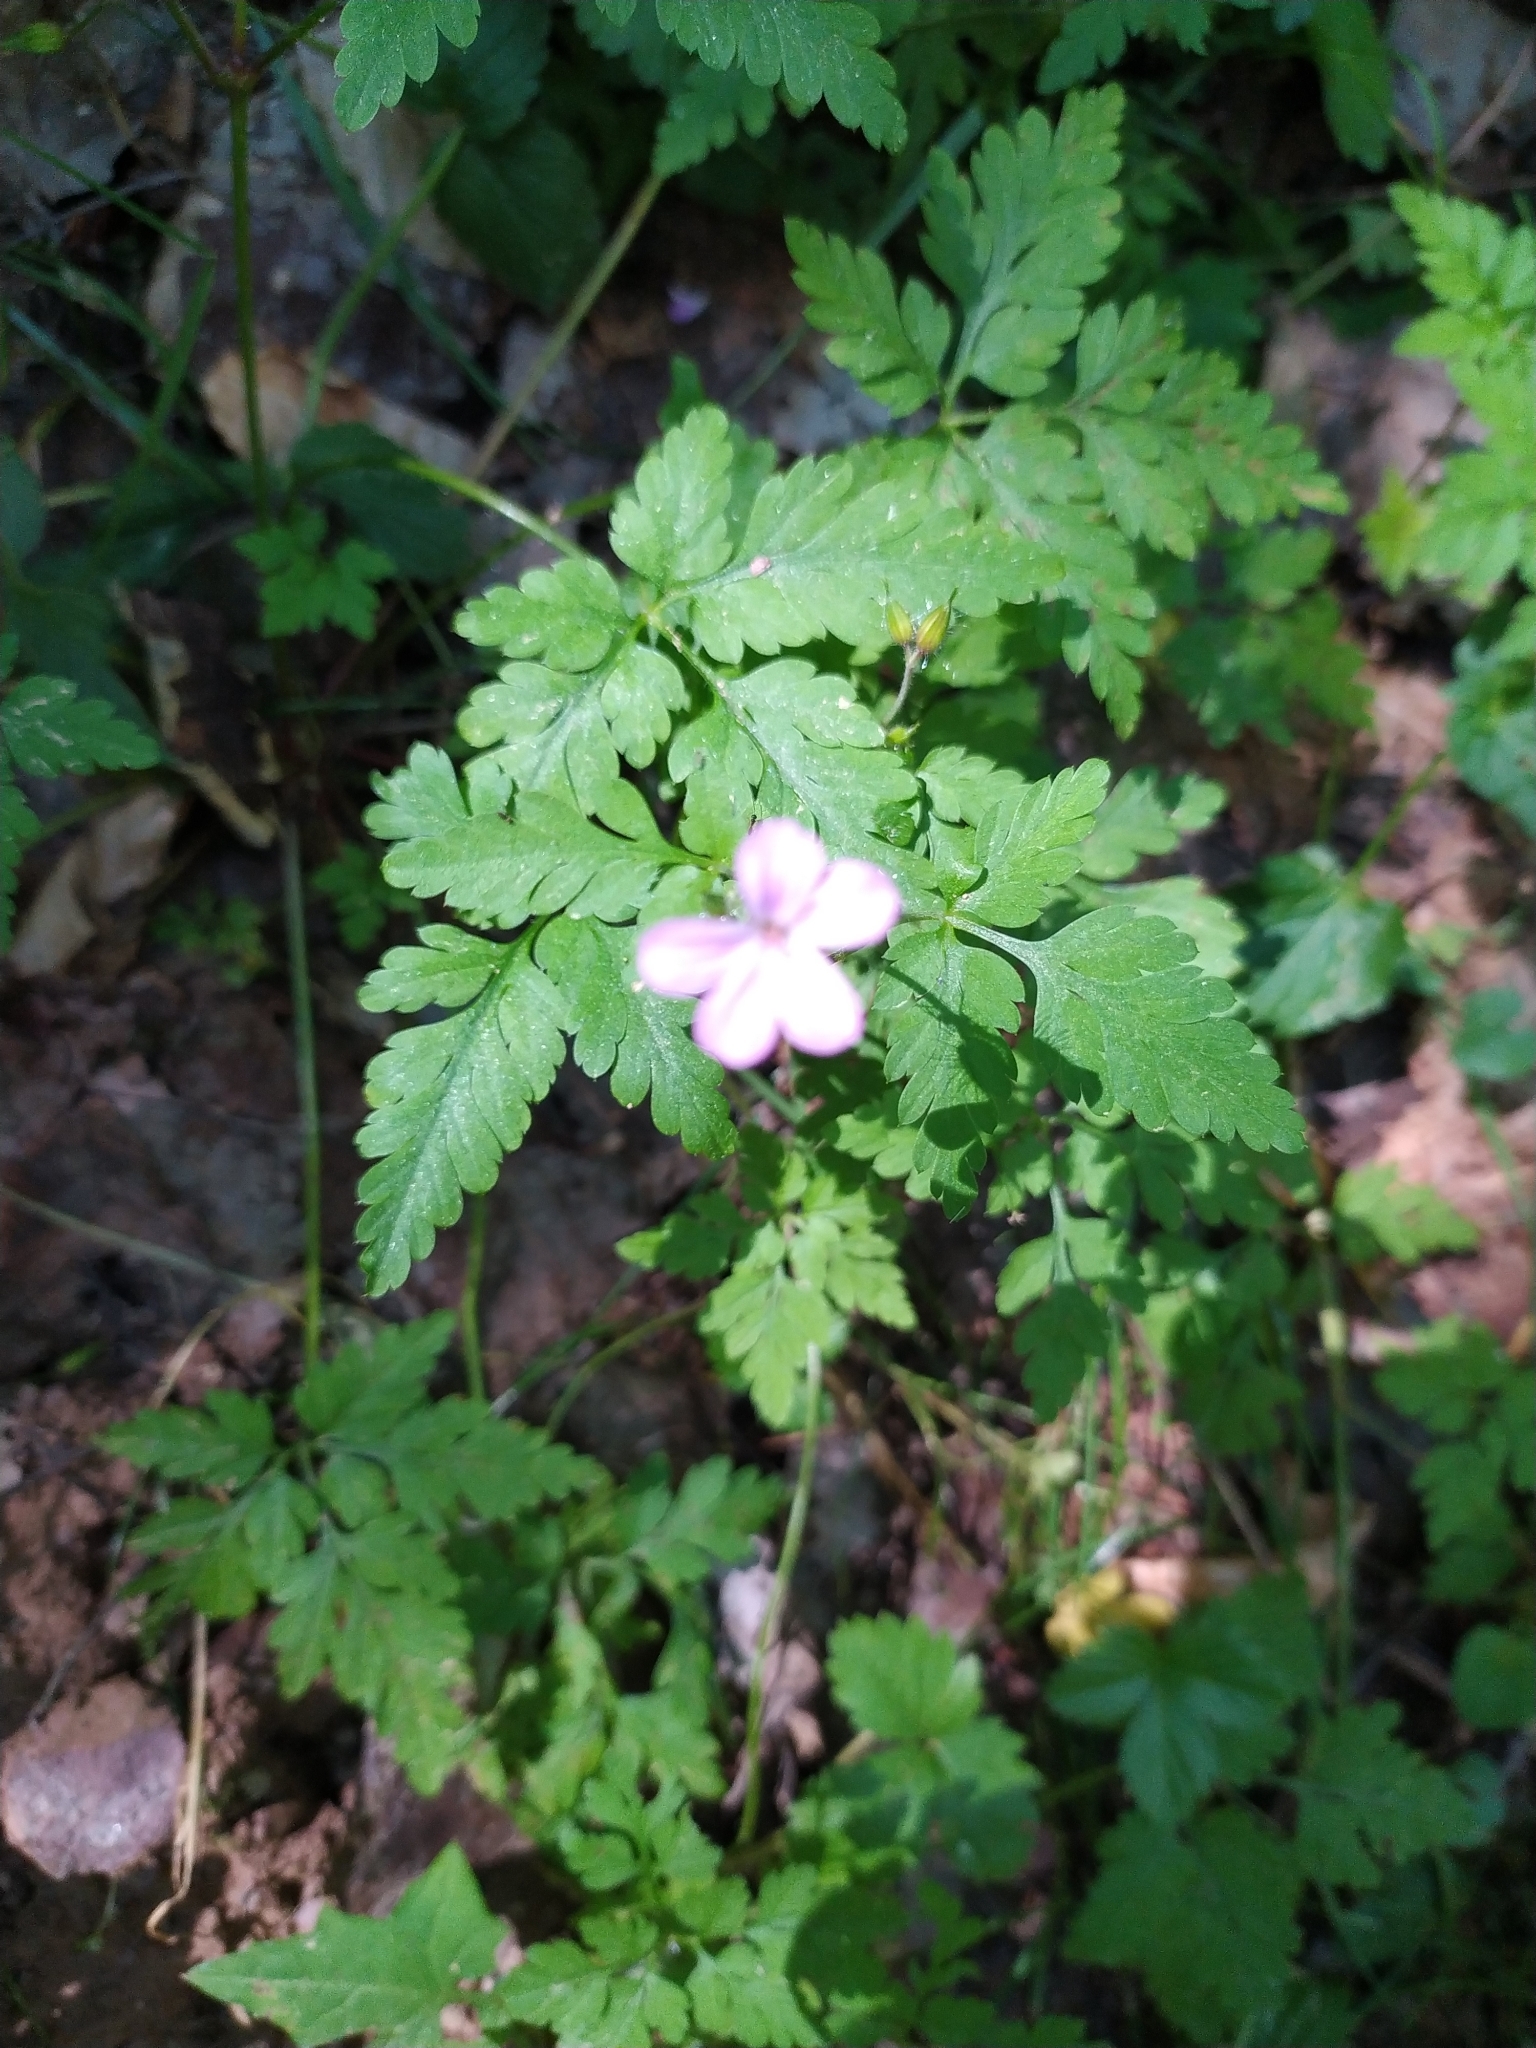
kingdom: Plantae
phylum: Tracheophyta
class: Magnoliopsida
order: Geraniales
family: Geraniaceae
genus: Geranium
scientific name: Geranium robertianum
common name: Herb-robert
